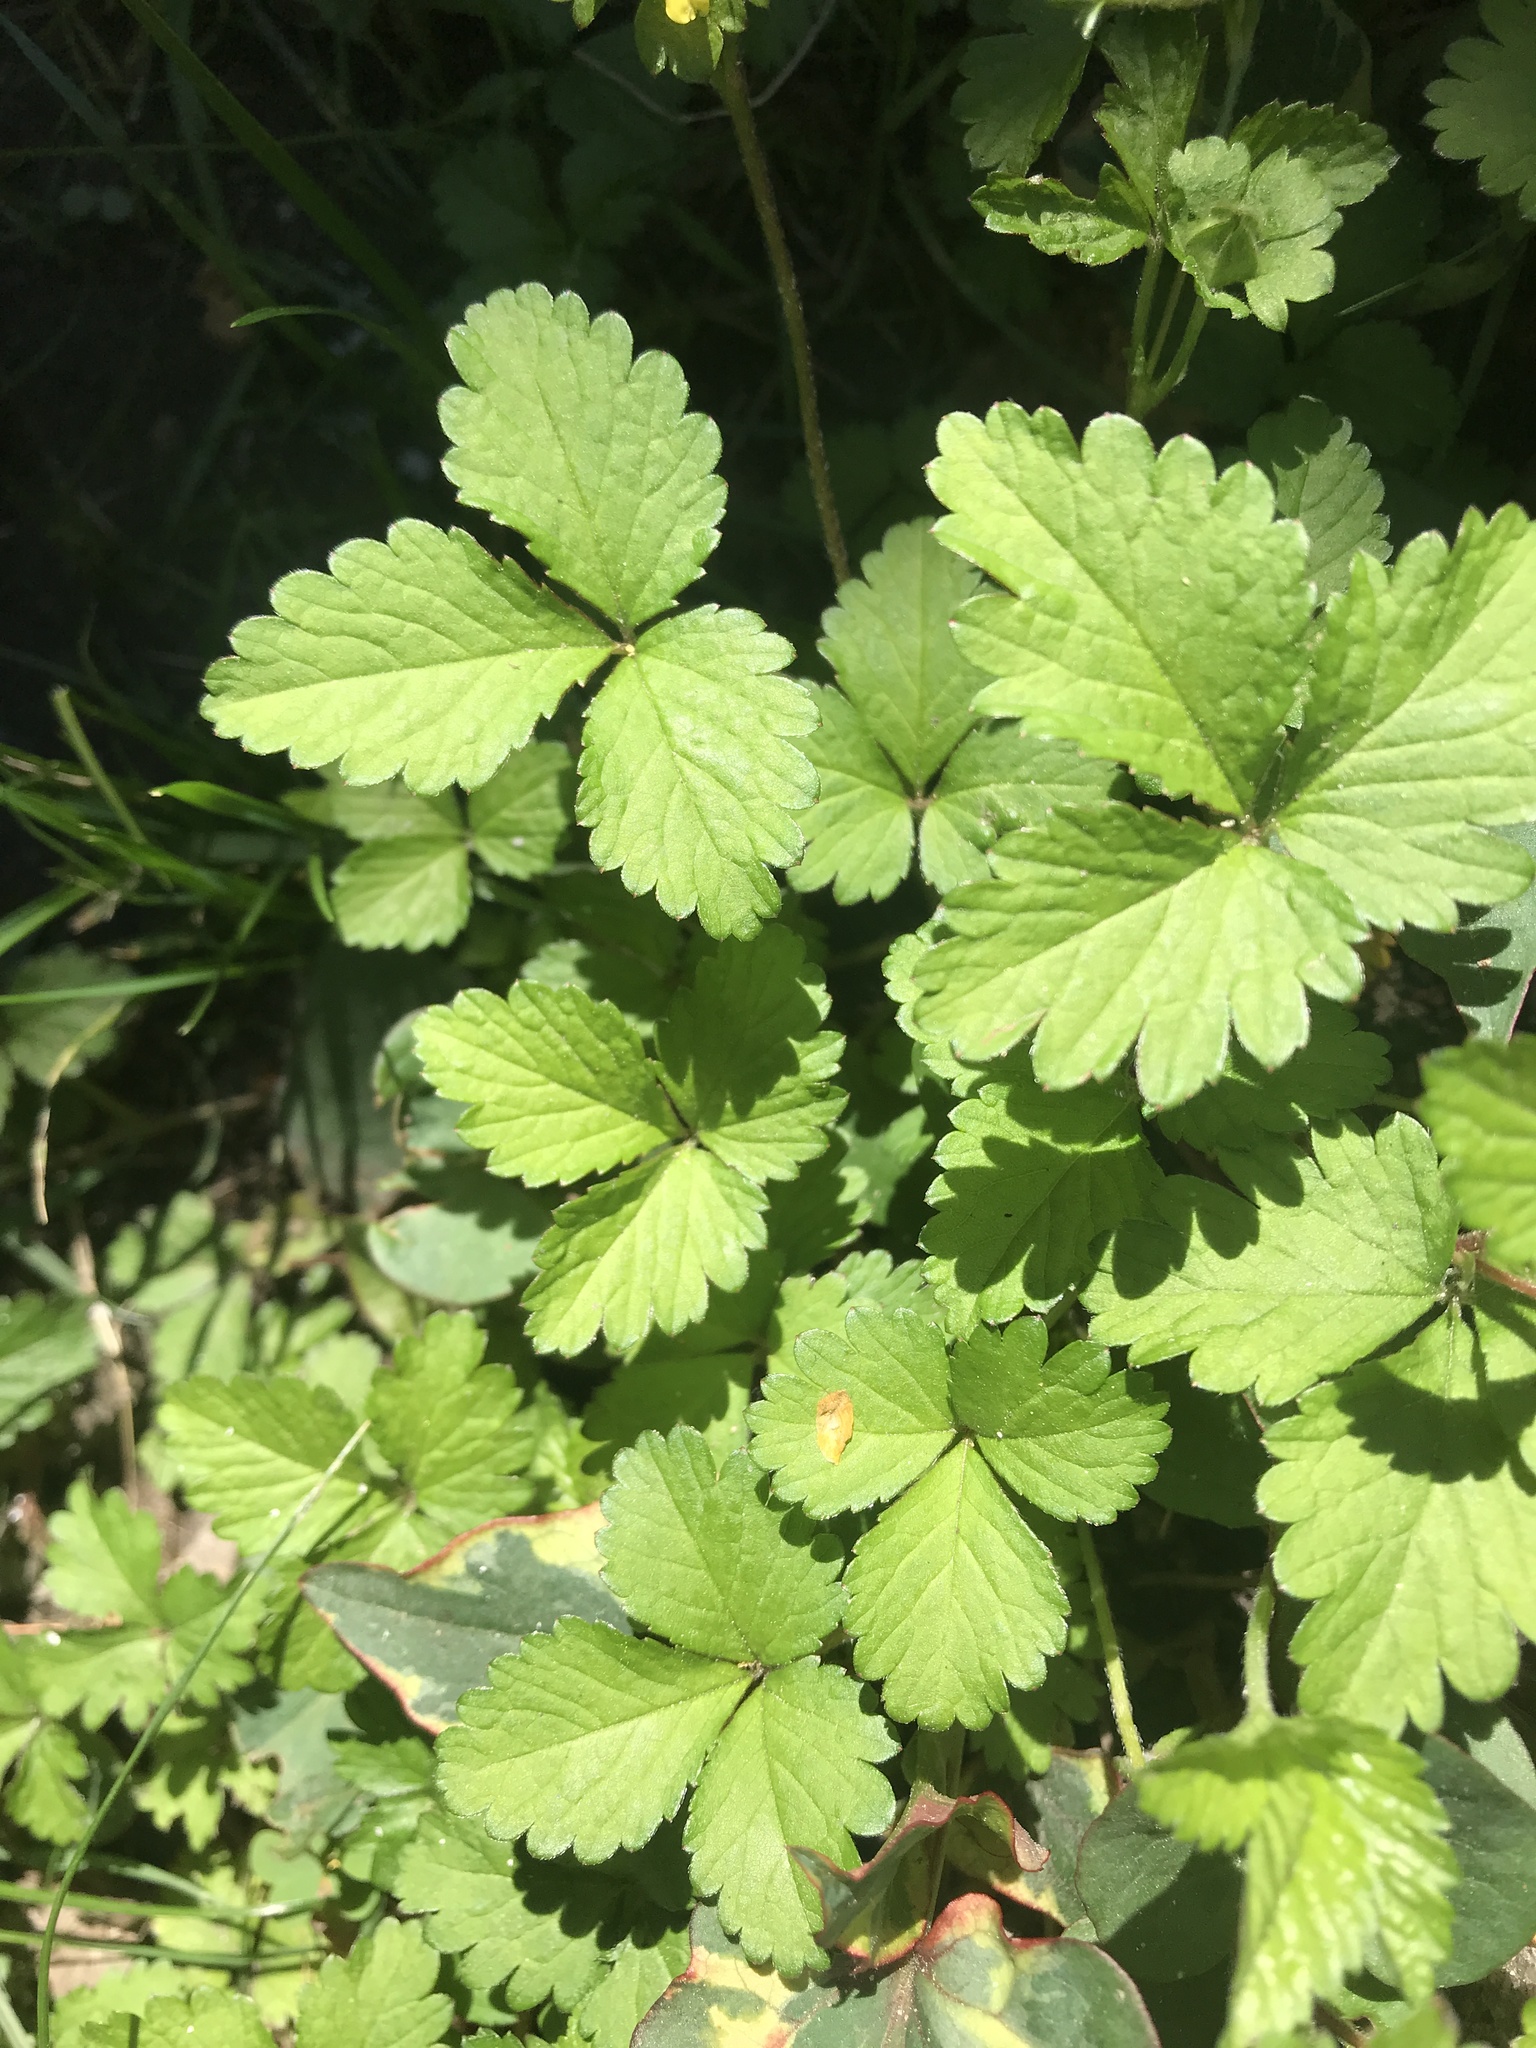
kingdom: Plantae
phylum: Tracheophyta
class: Magnoliopsida
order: Rosales
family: Rosaceae
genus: Potentilla
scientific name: Potentilla indica
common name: Yellow-flowered strawberry
